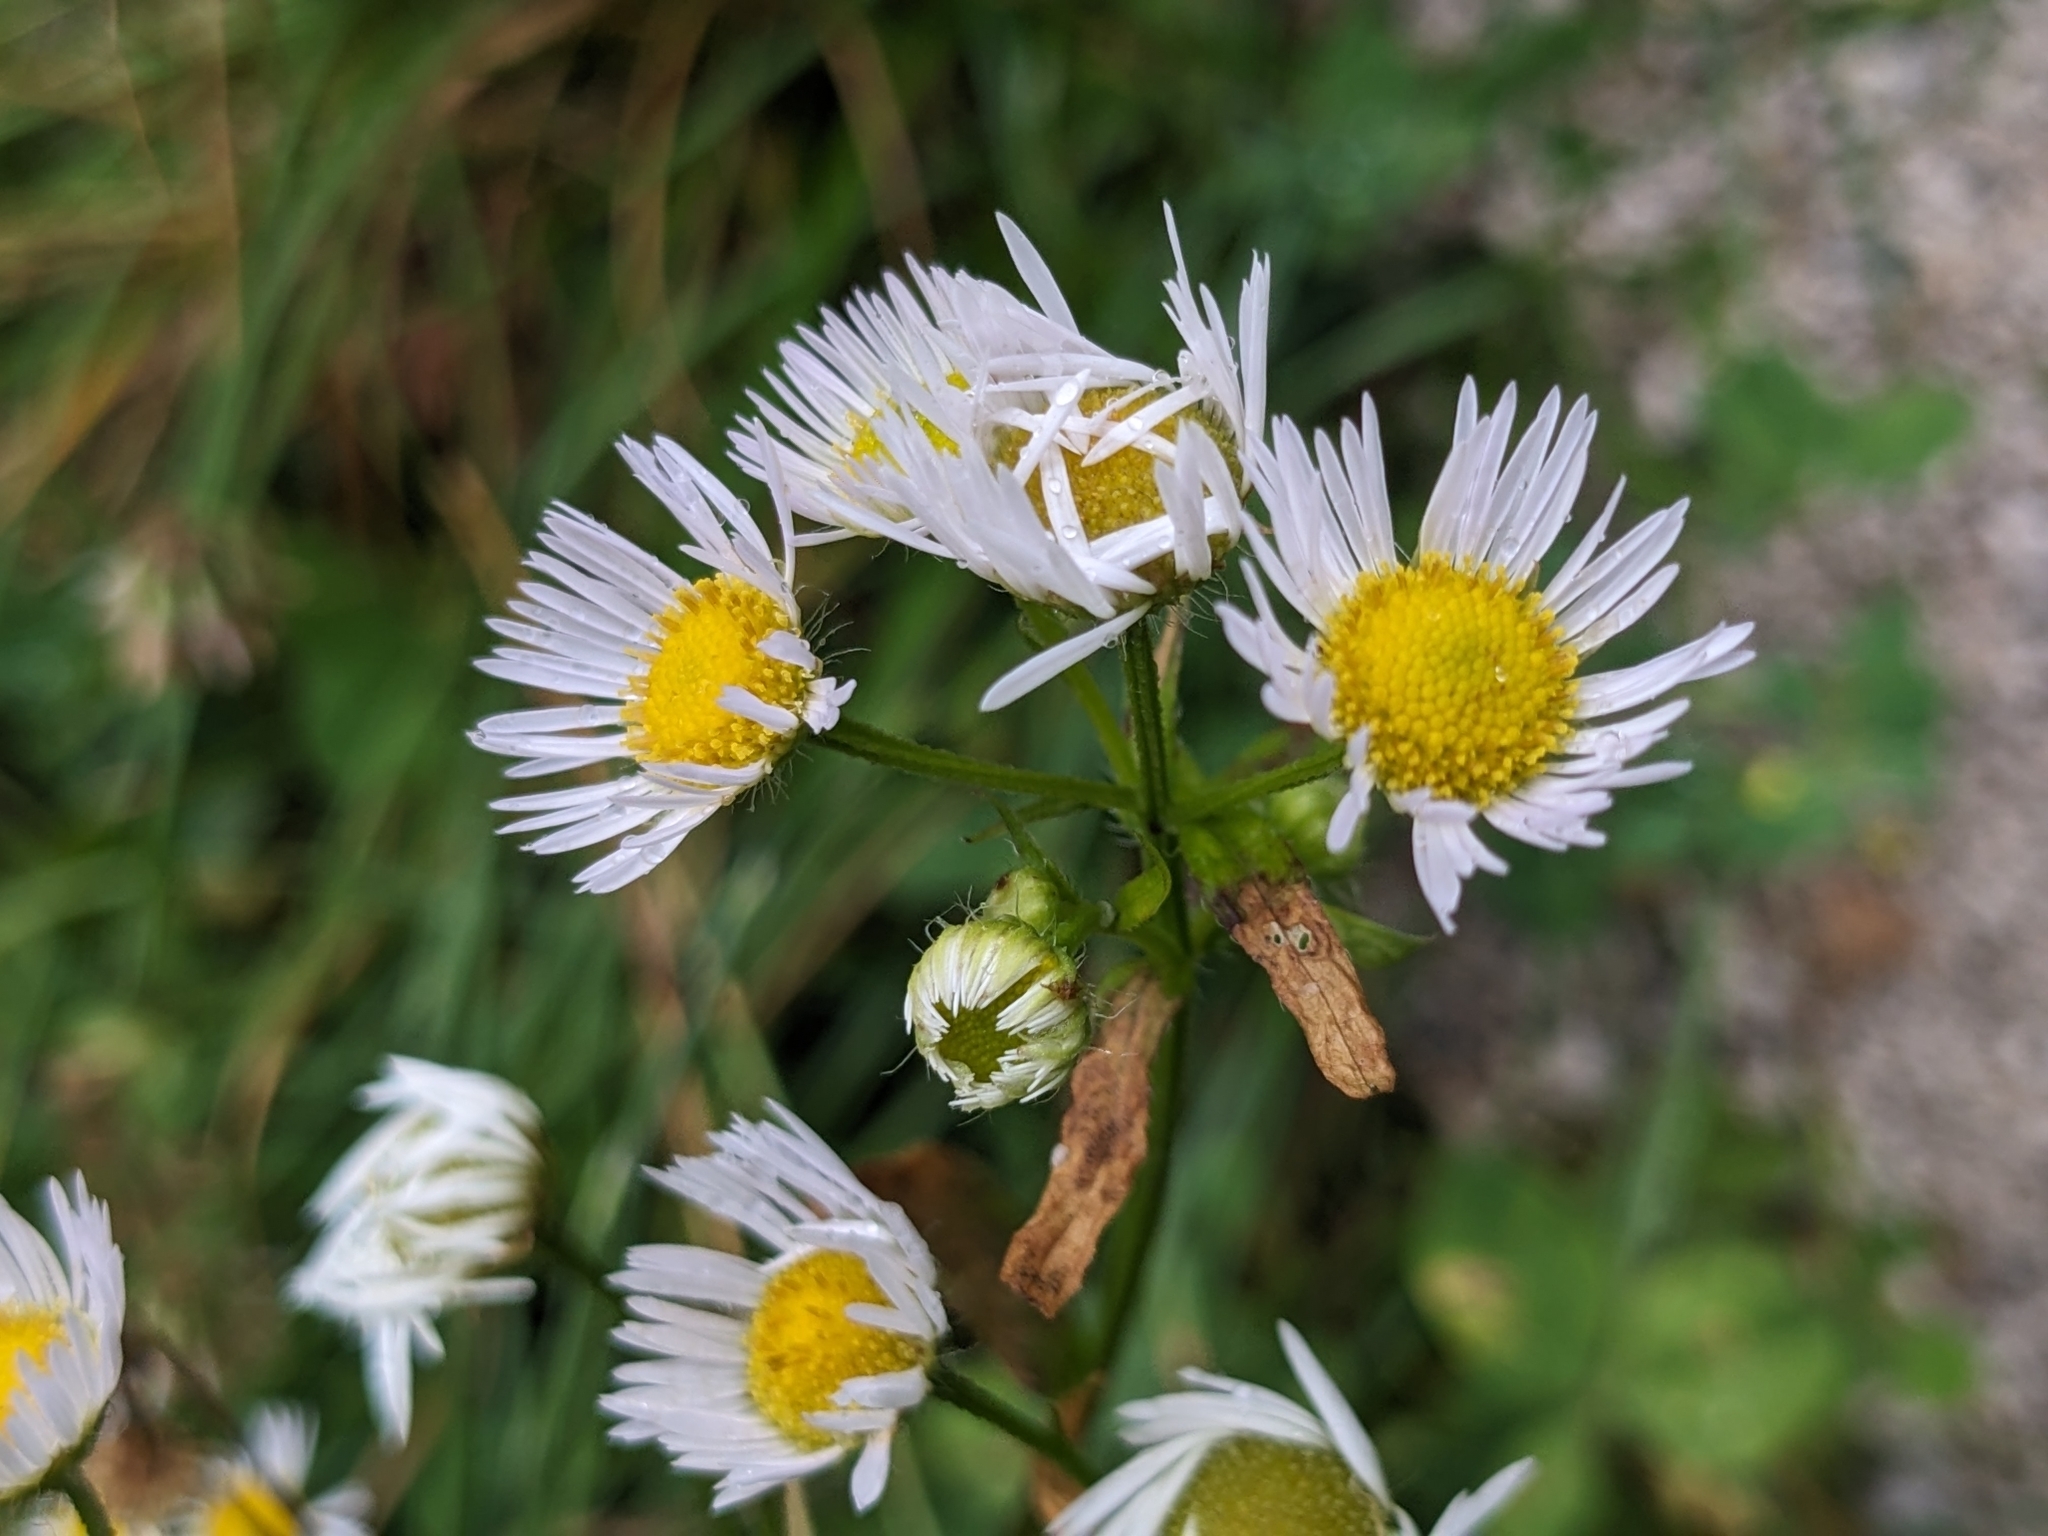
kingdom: Plantae
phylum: Tracheophyta
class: Magnoliopsida
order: Asterales
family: Asteraceae
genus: Erigeron
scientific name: Erigeron annuus
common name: Tall fleabane
